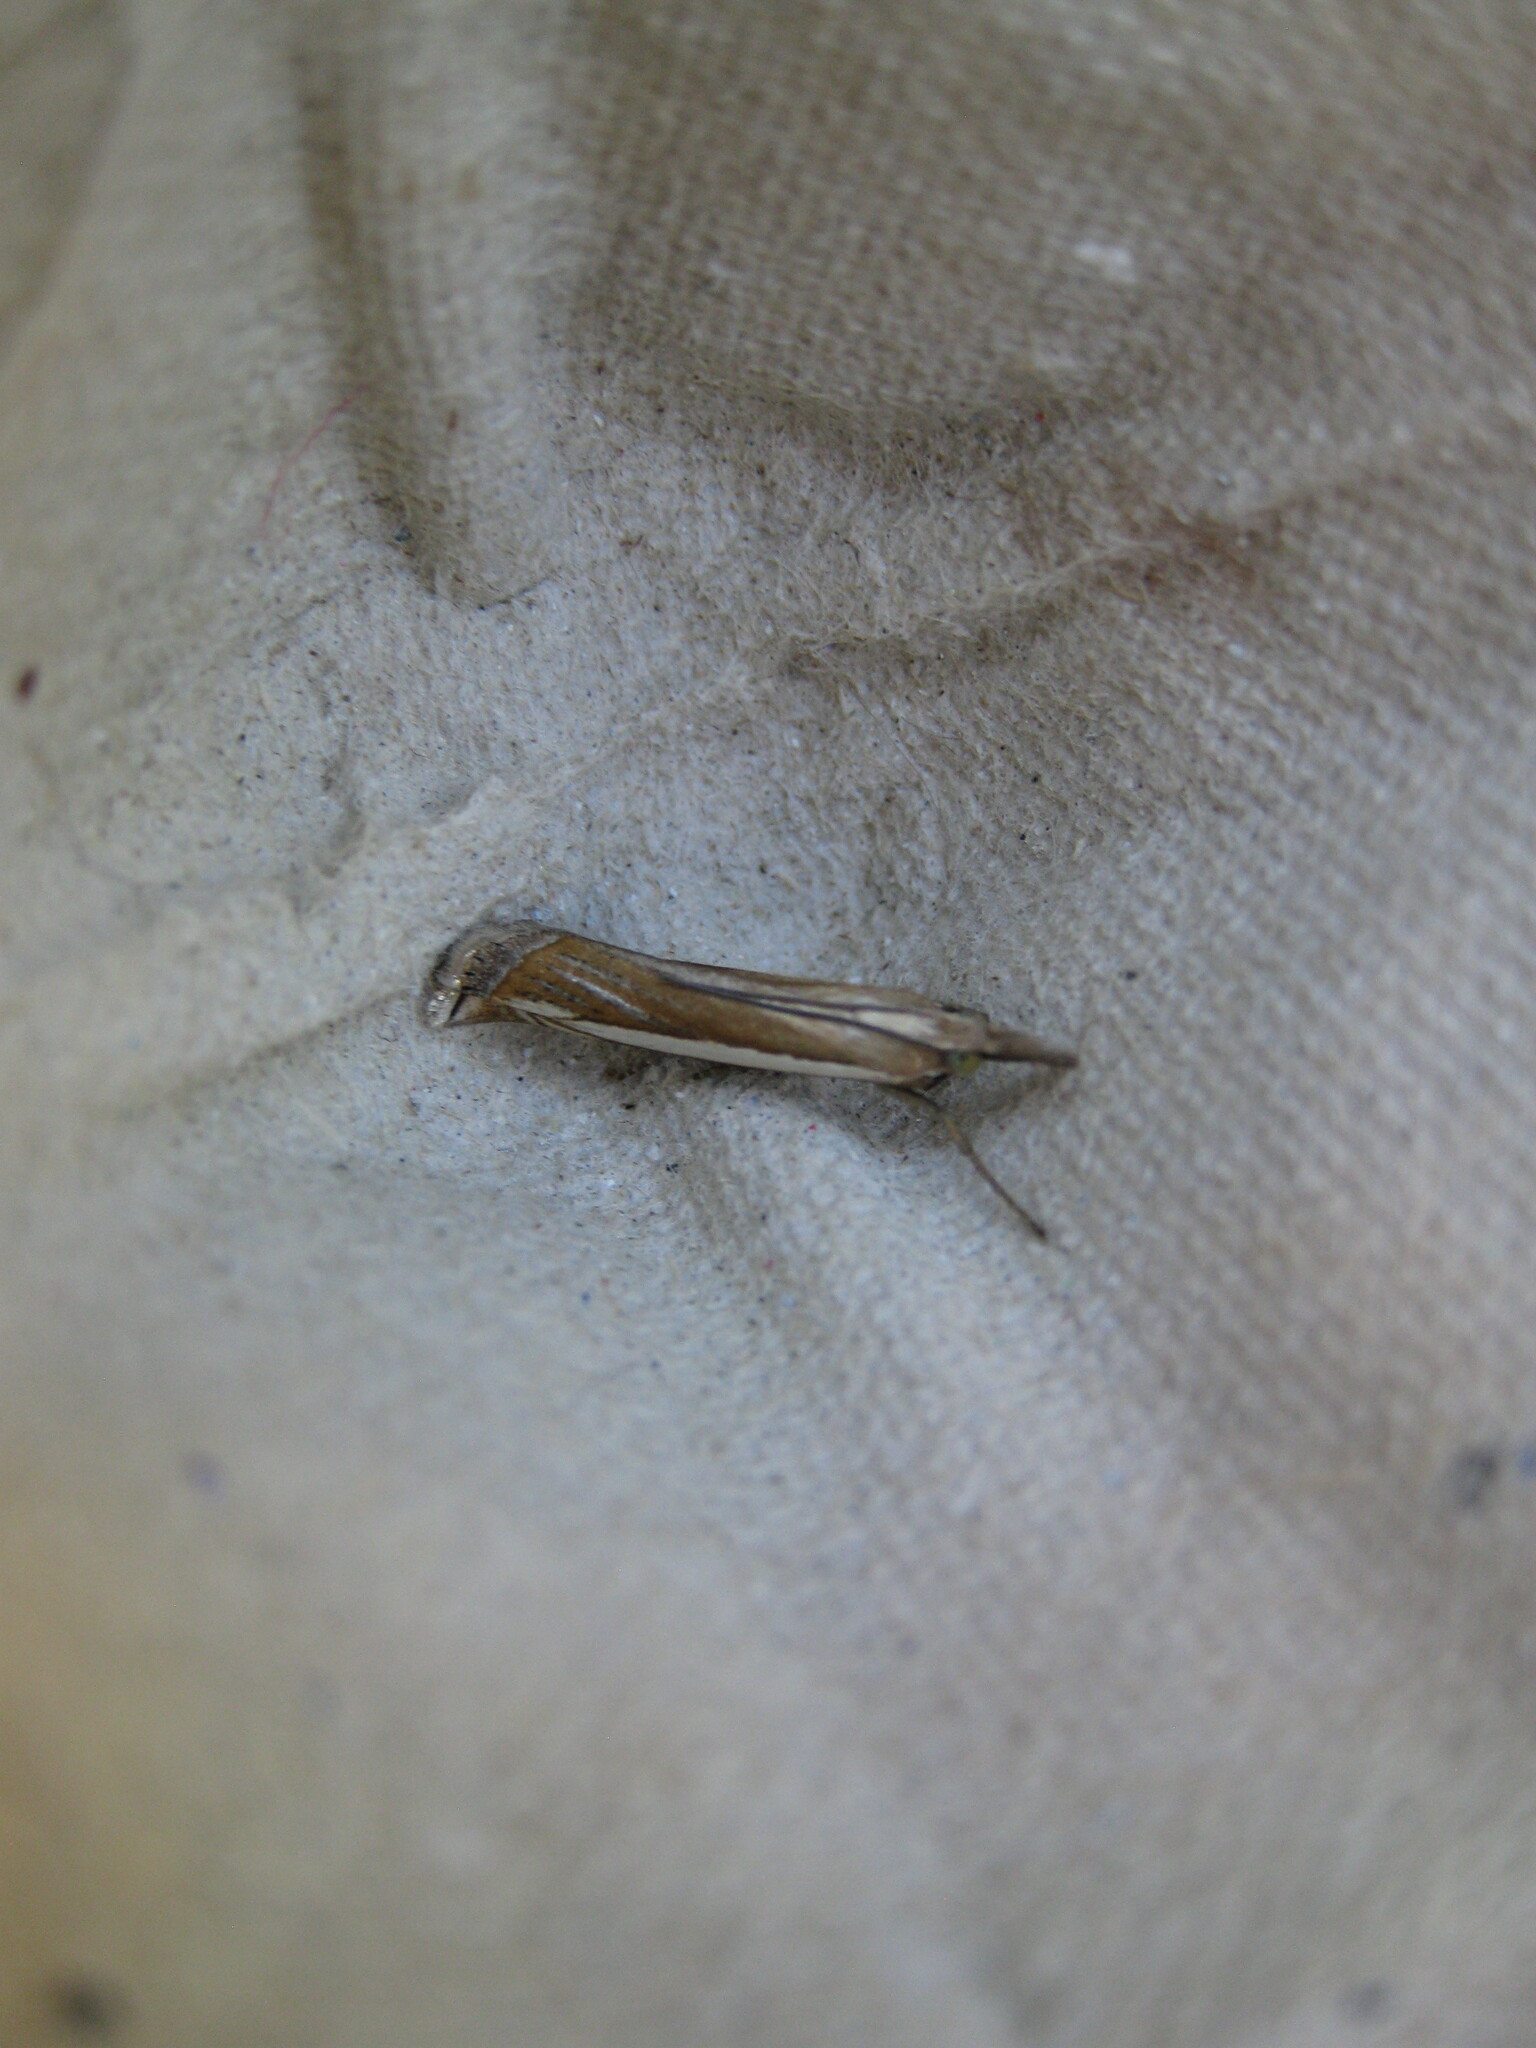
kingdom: Animalia
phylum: Arthropoda
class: Insecta
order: Lepidoptera
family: Crambidae
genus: Crambus
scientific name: Crambus pascuella
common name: Inlaid grass-veneer
